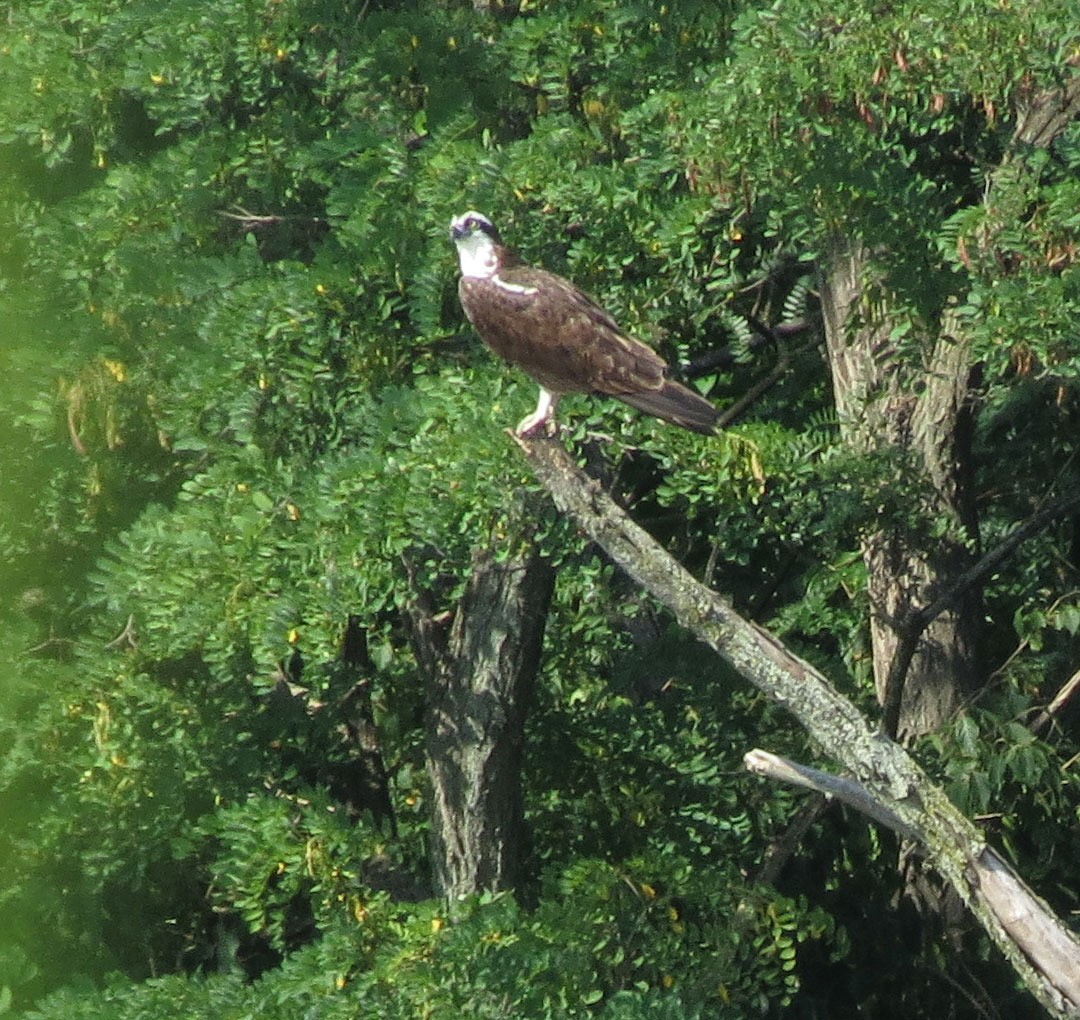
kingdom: Animalia
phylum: Chordata
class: Aves
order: Accipitriformes
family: Pandionidae
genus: Pandion
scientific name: Pandion haliaetus
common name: Osprey
